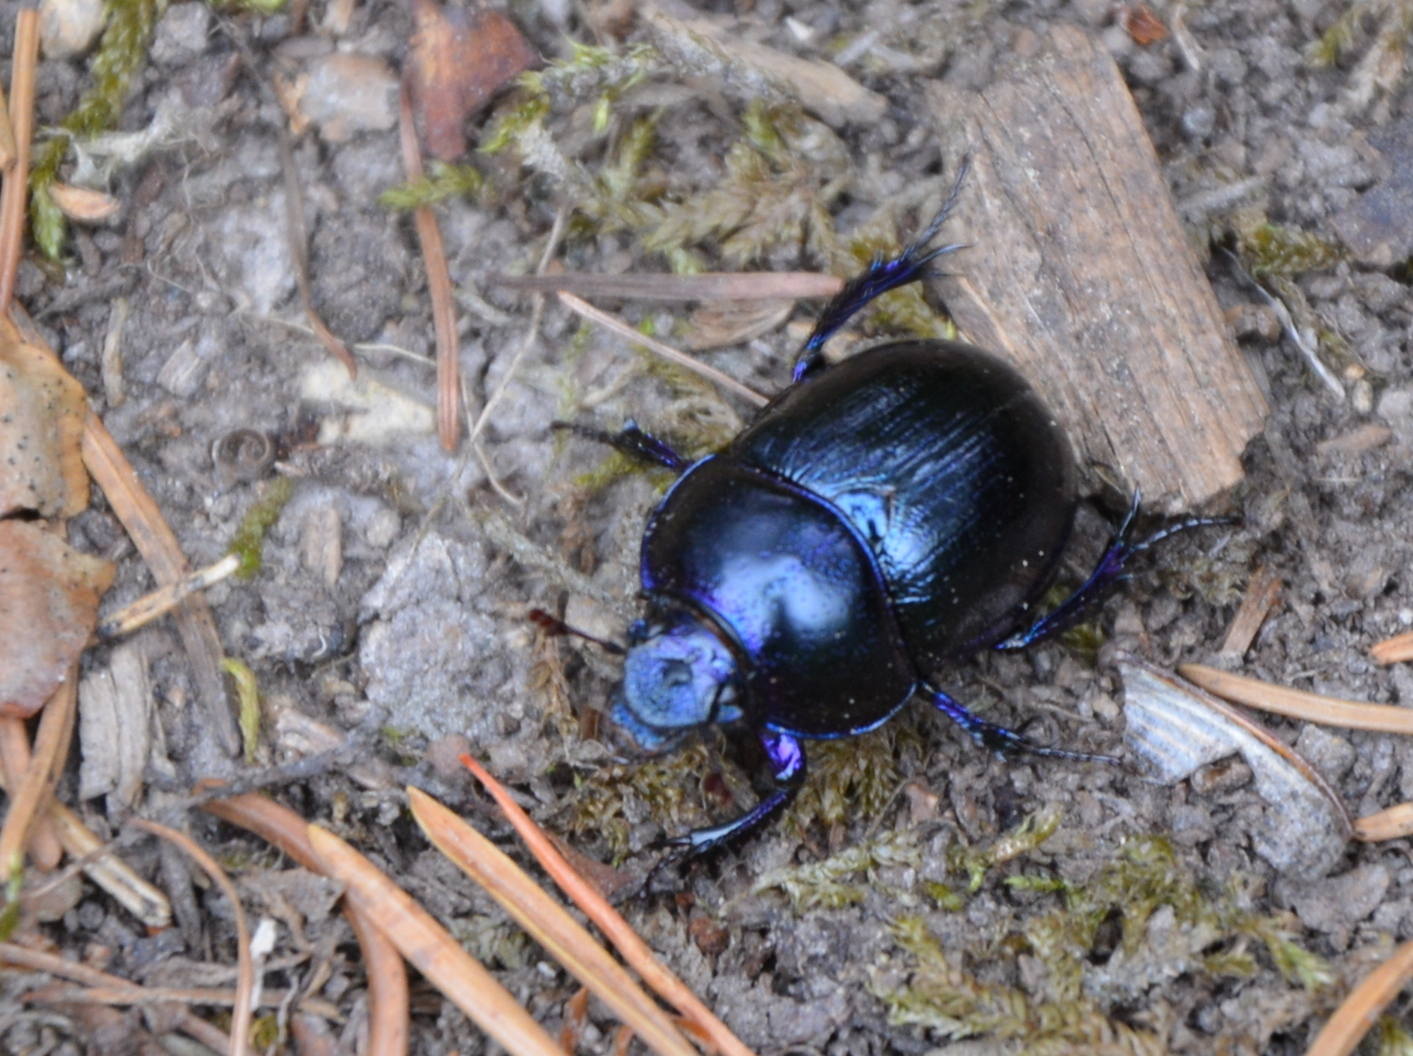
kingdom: Animalia
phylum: Arthropoda
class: Insecta
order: Coleoptera
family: Geotrupidae
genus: Anoplotrupes
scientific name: Anoplotrupes stercorosus
